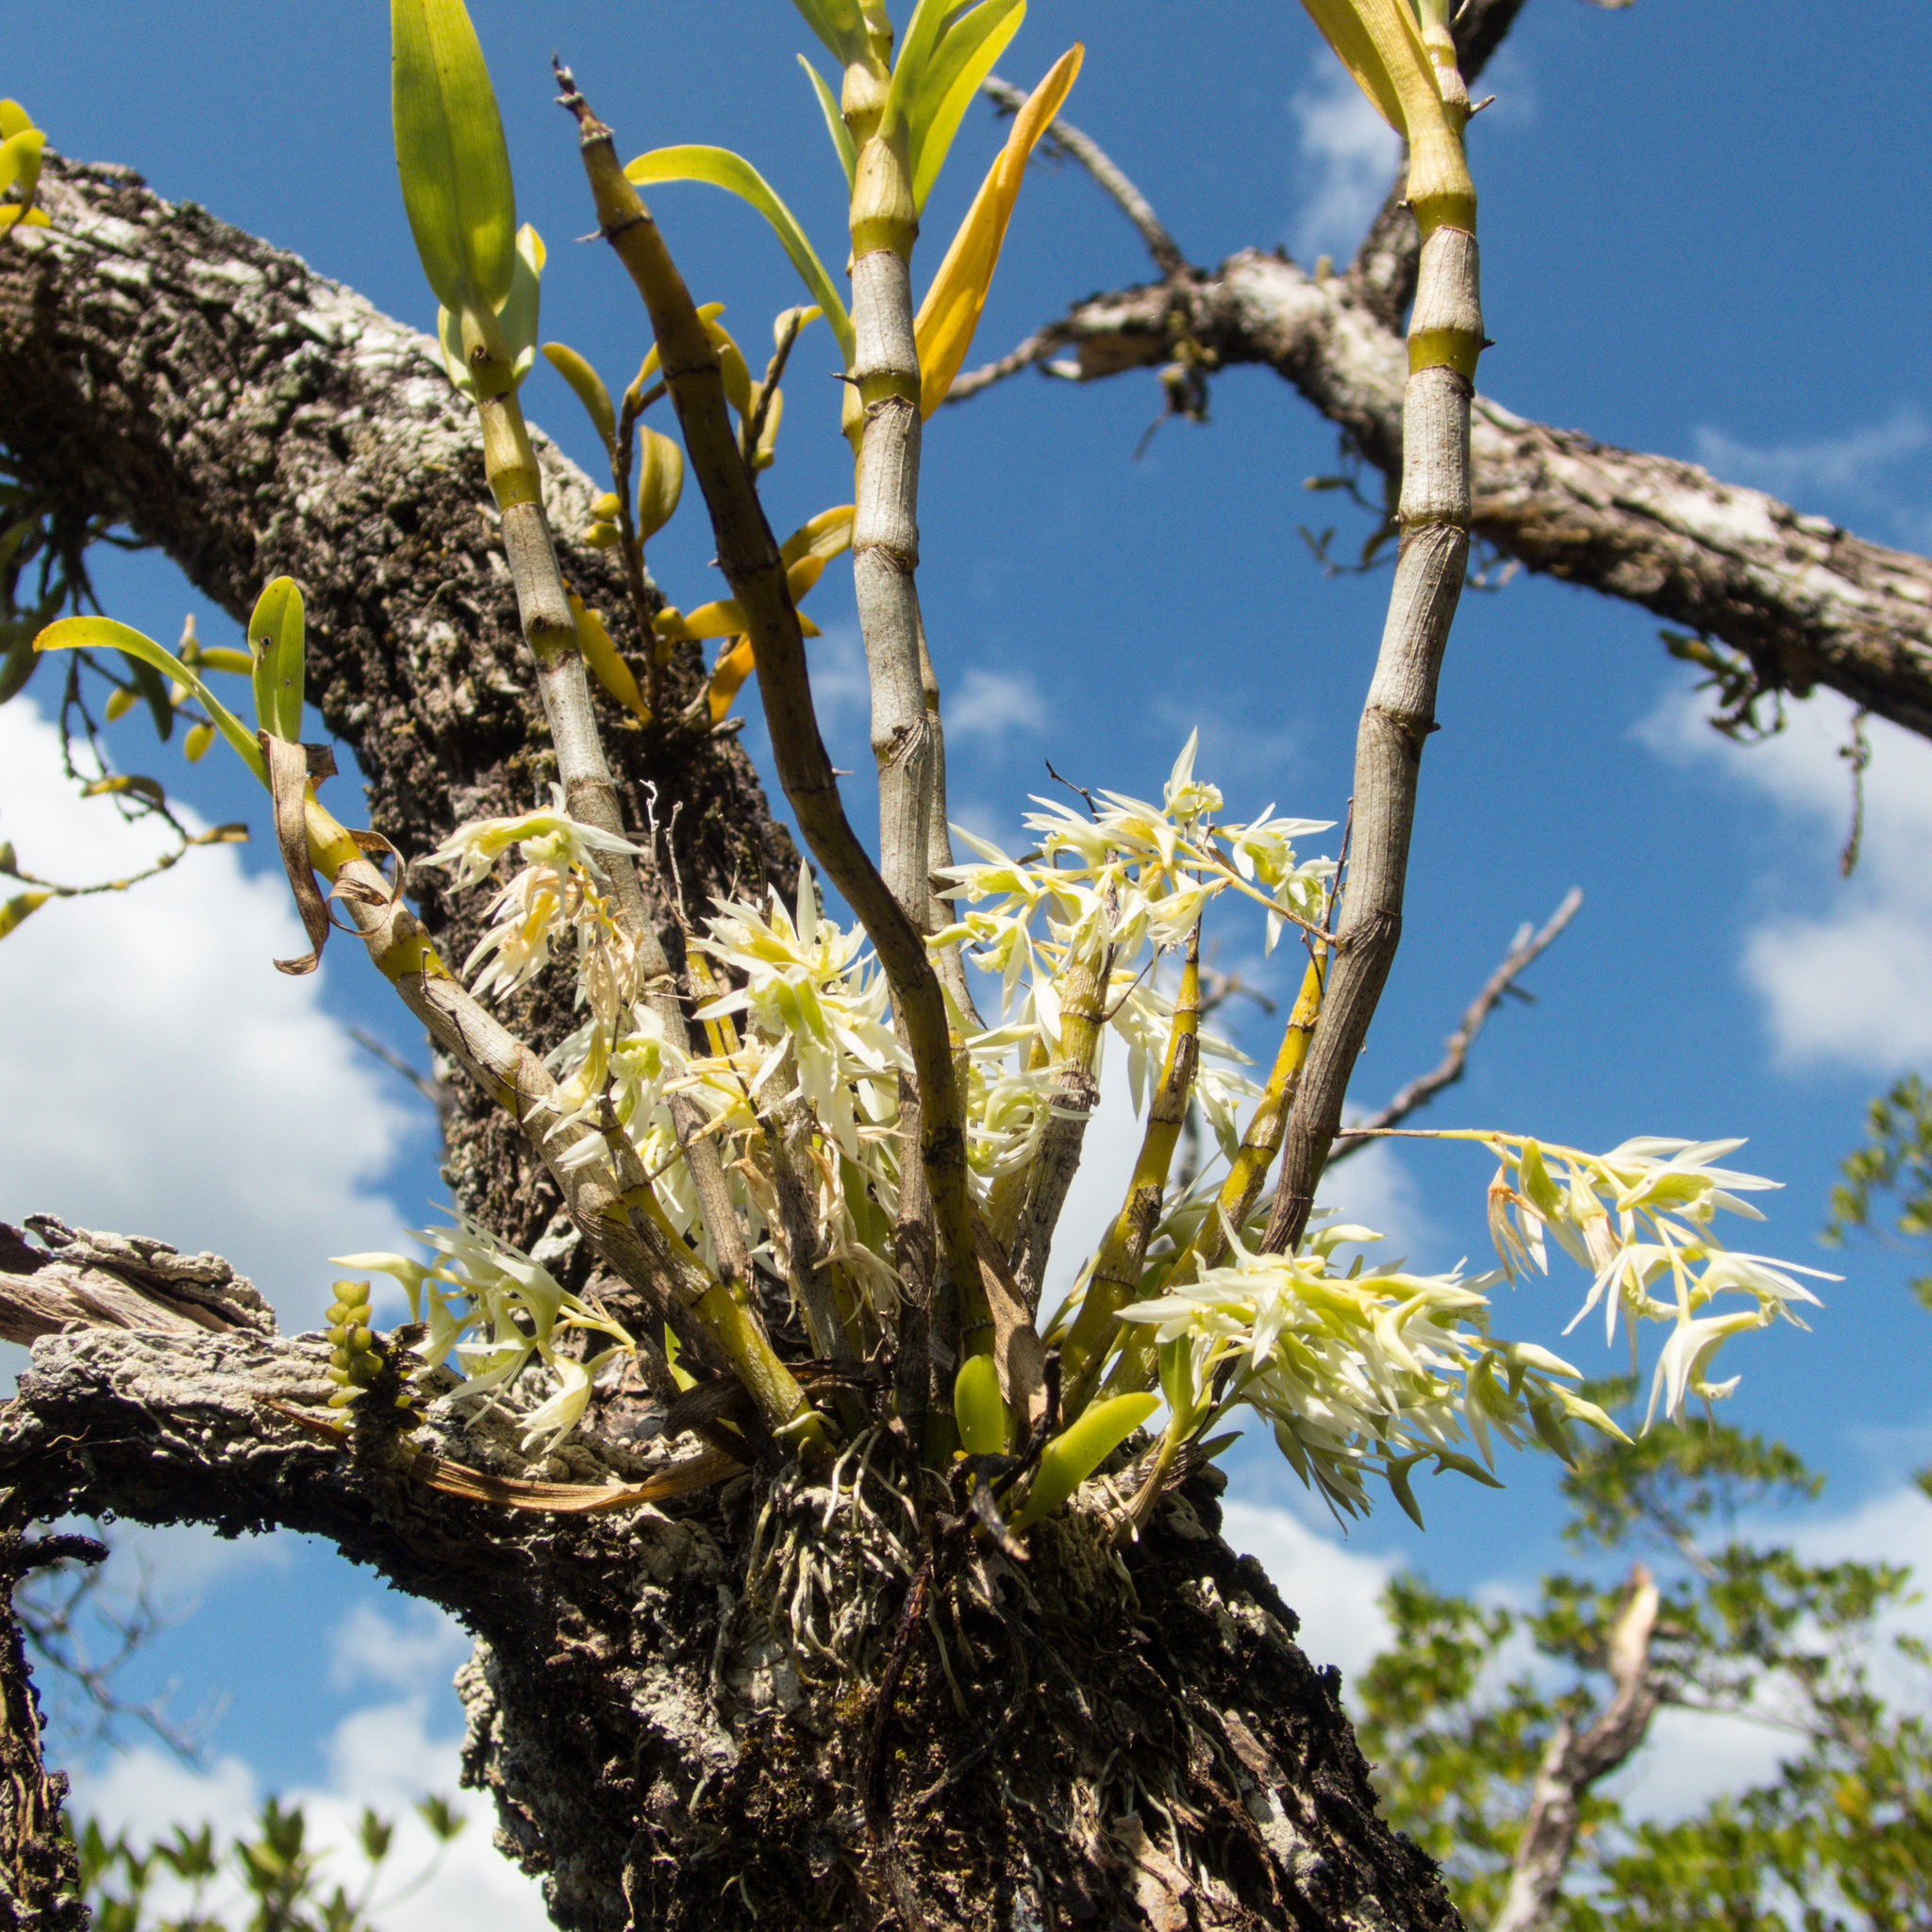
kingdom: Plantae
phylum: Tracheophyta
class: Liliopsida
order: Asparagales
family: Orchidaceae
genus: Dendrobium
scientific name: Dendrobium kratense
